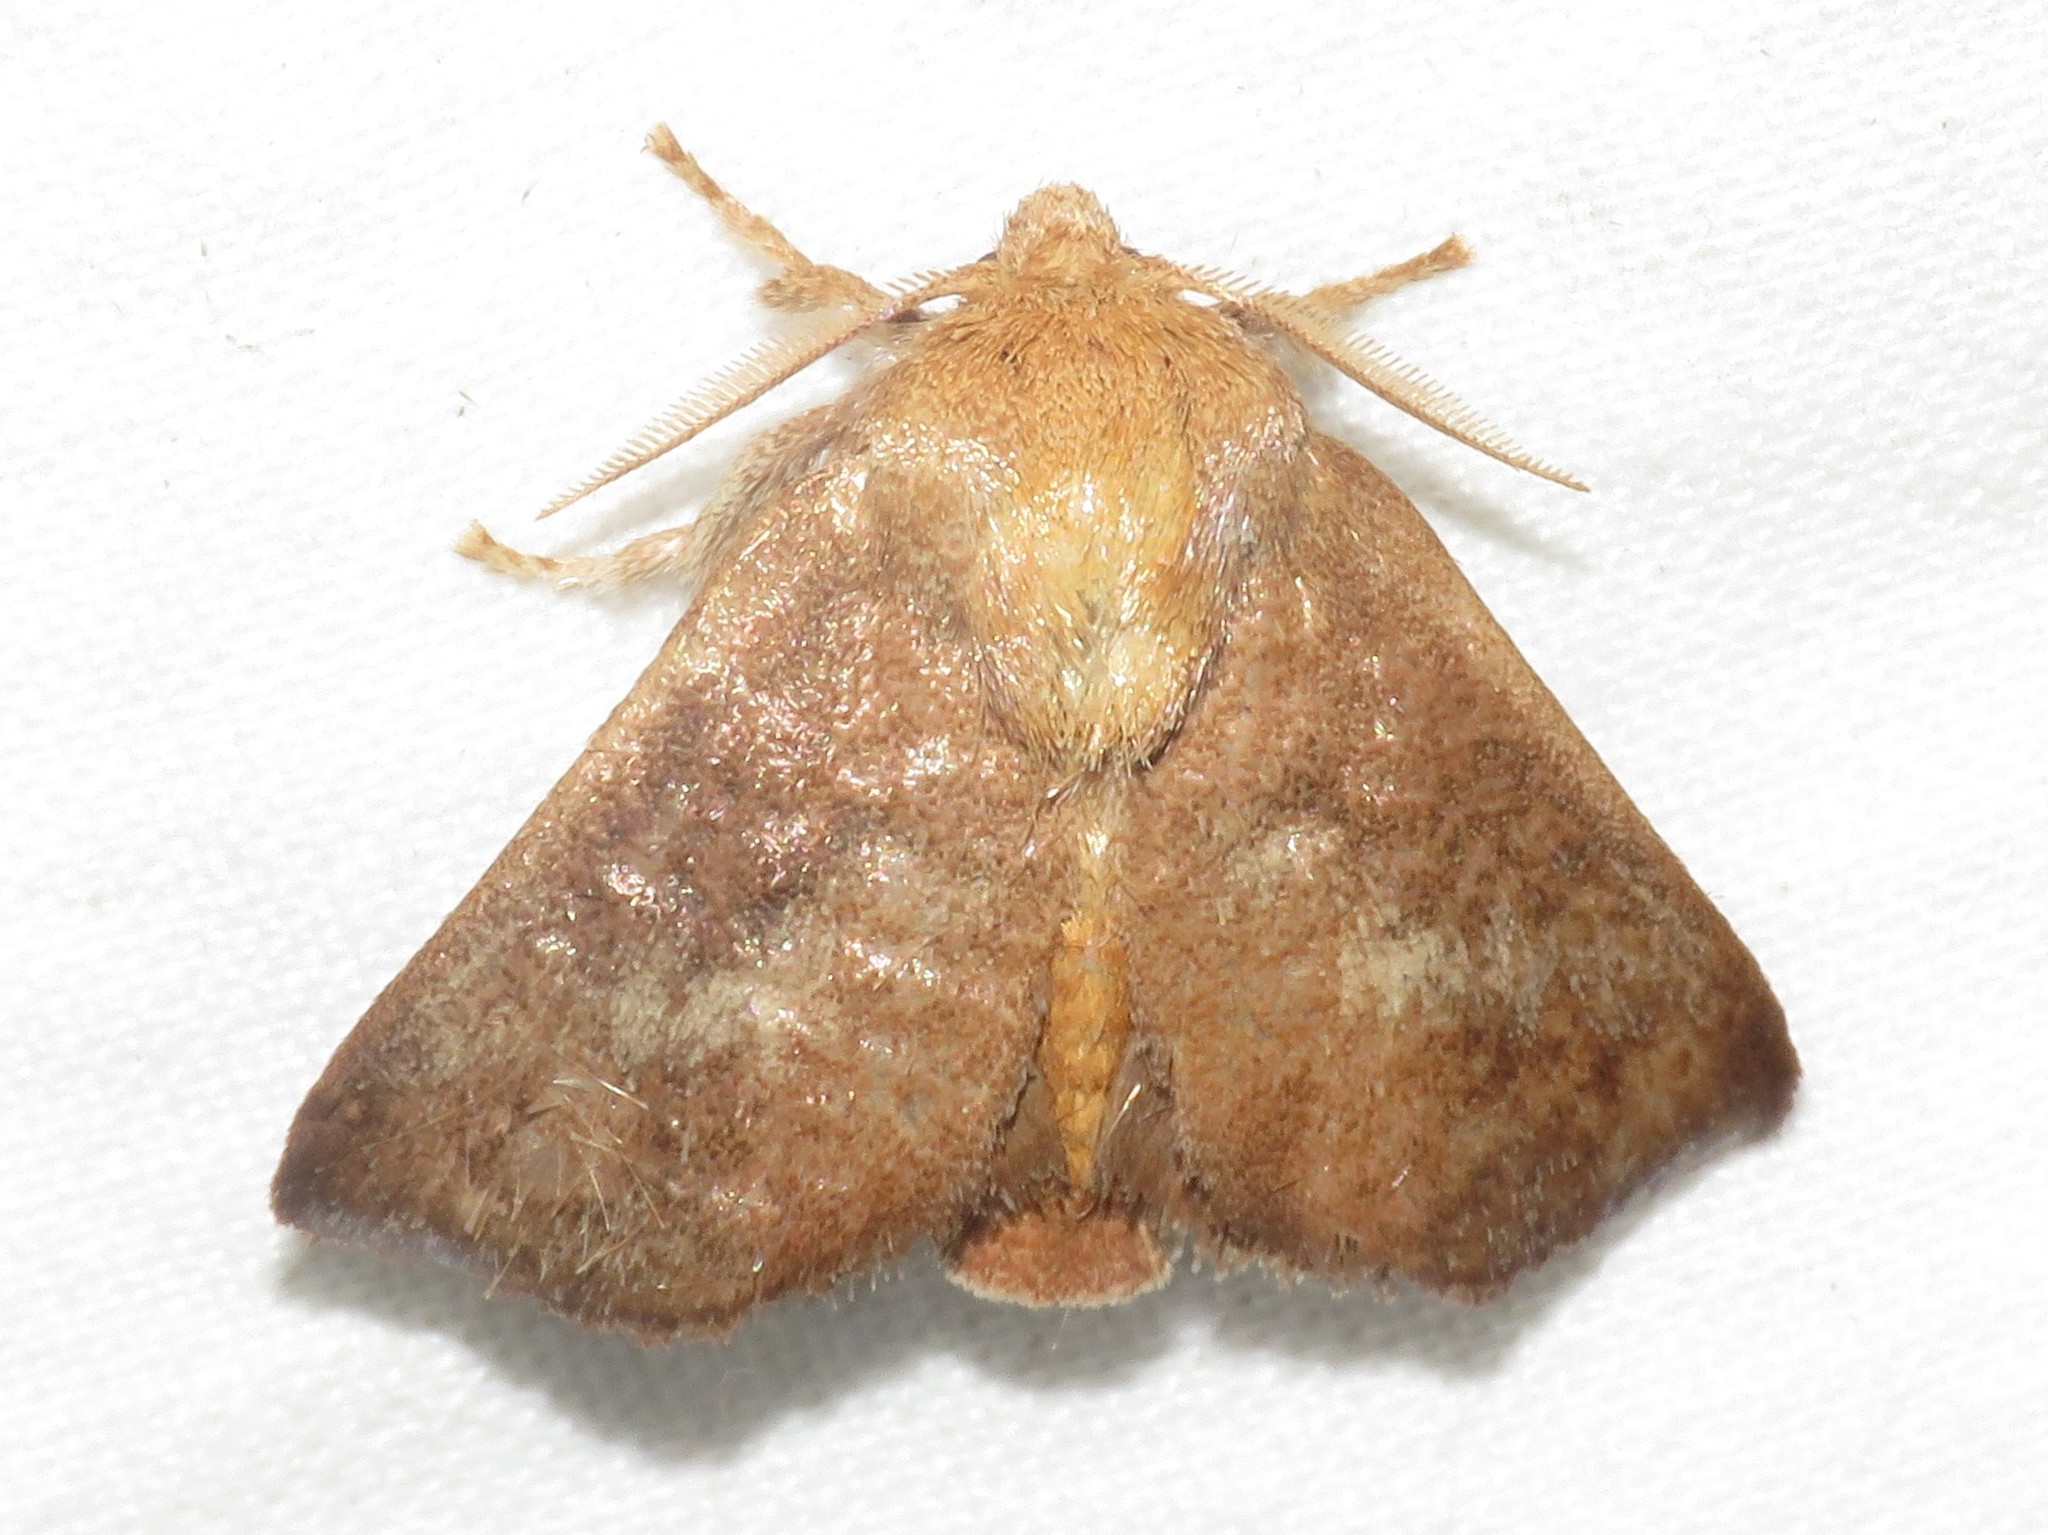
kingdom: Animalia
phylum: Arthropoda
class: Insecta
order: Lepidoptera
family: Limacodidae
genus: Isa
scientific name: Isa textula
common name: Crowned slug moth
